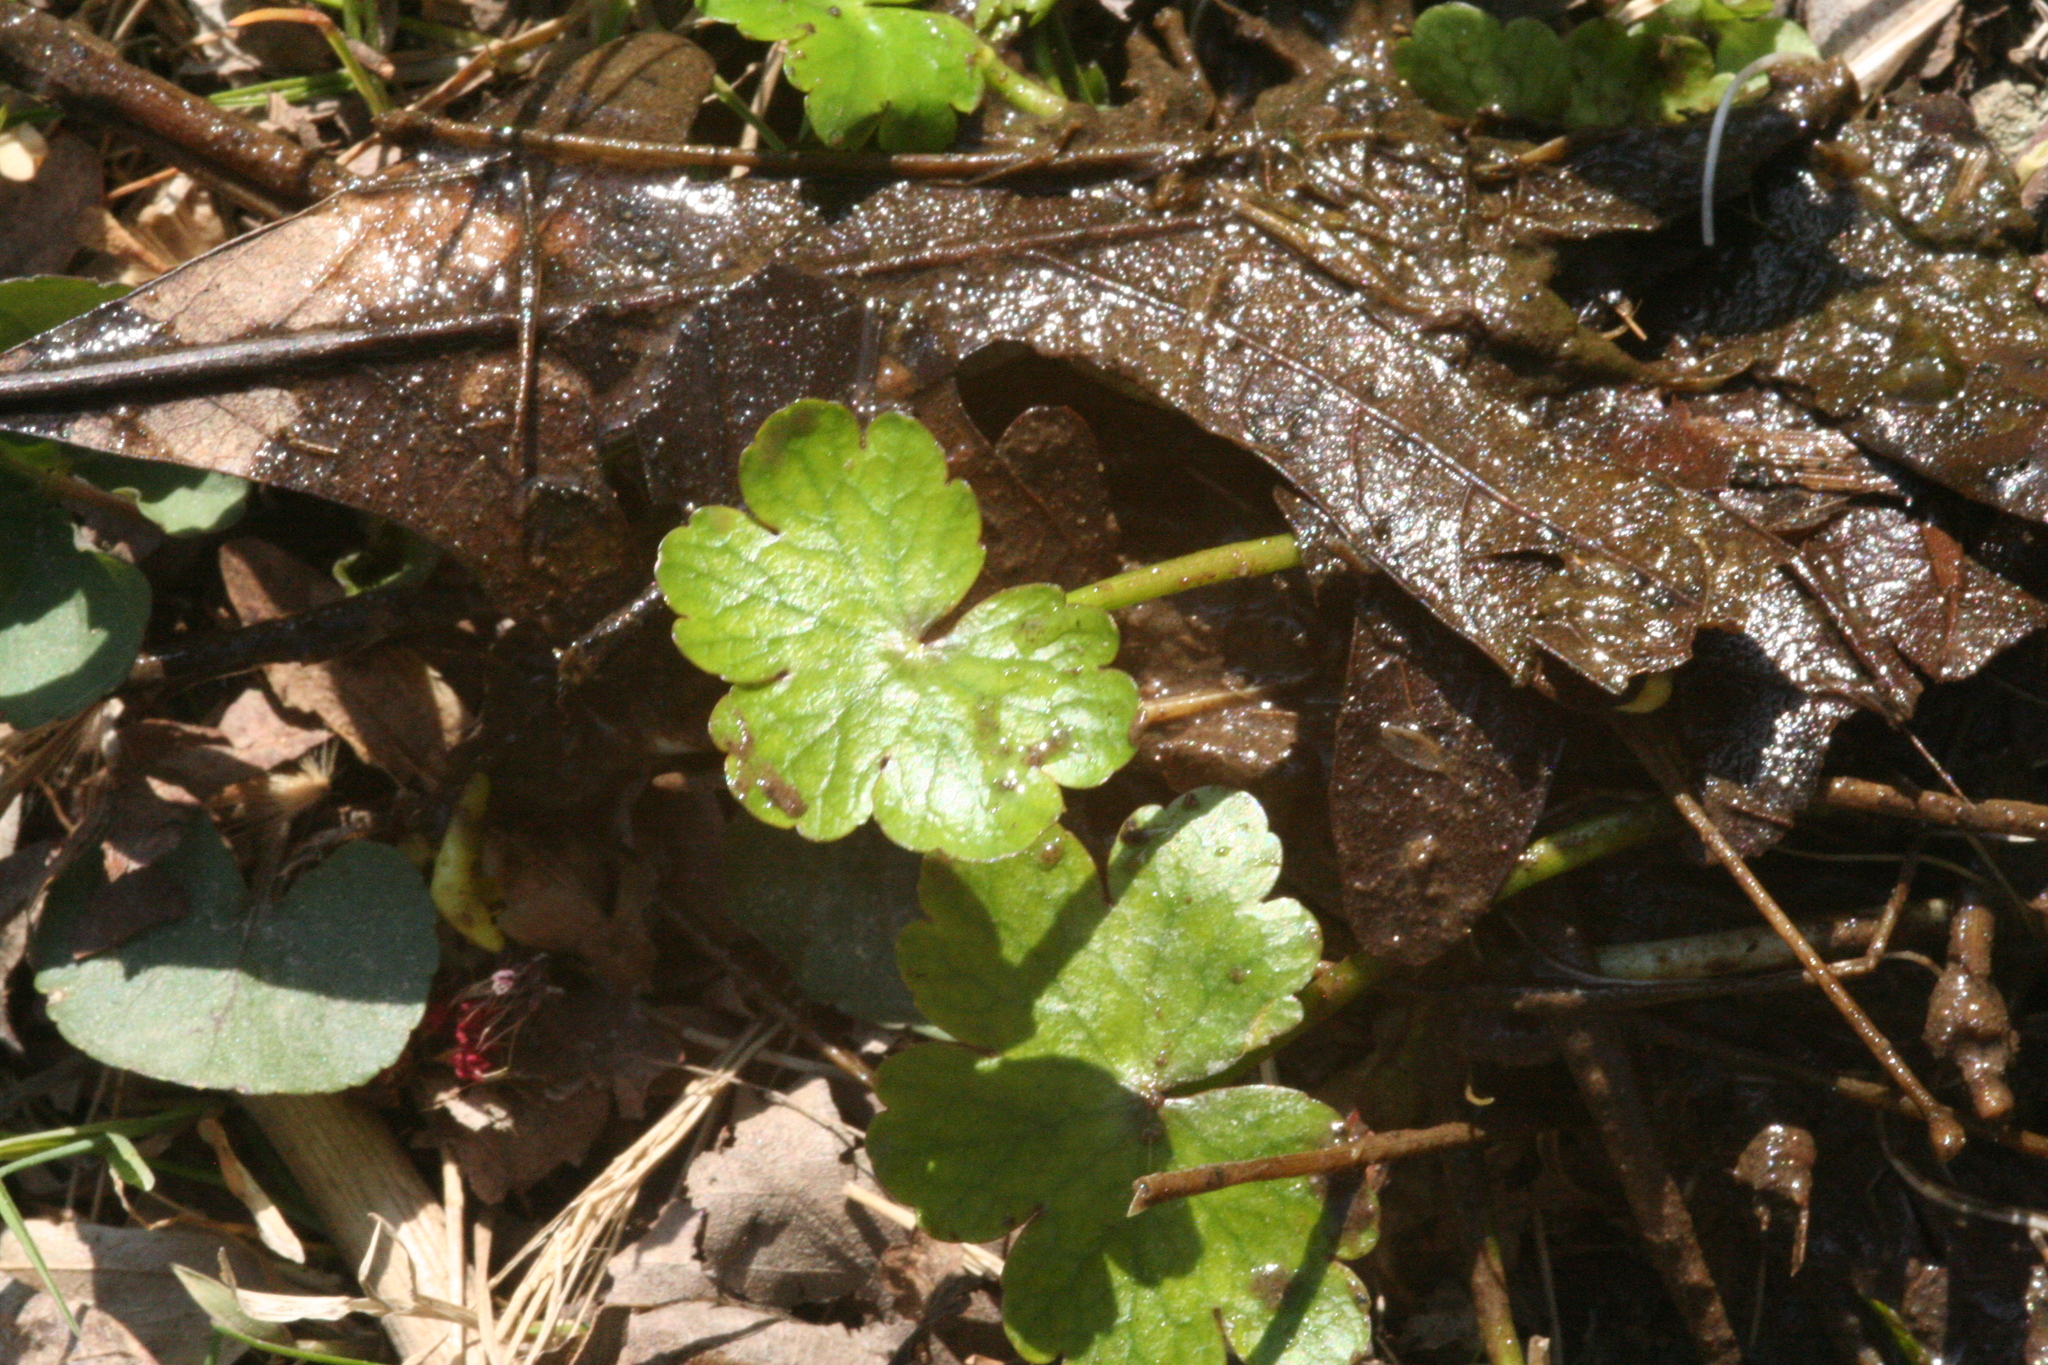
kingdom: Plantae
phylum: Tracheophyta
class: Magnoliopsida
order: Apiales
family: Araliaceae
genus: Hydrocotyle
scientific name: Hydrocotyle ranunculoides
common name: Floating pennywort
